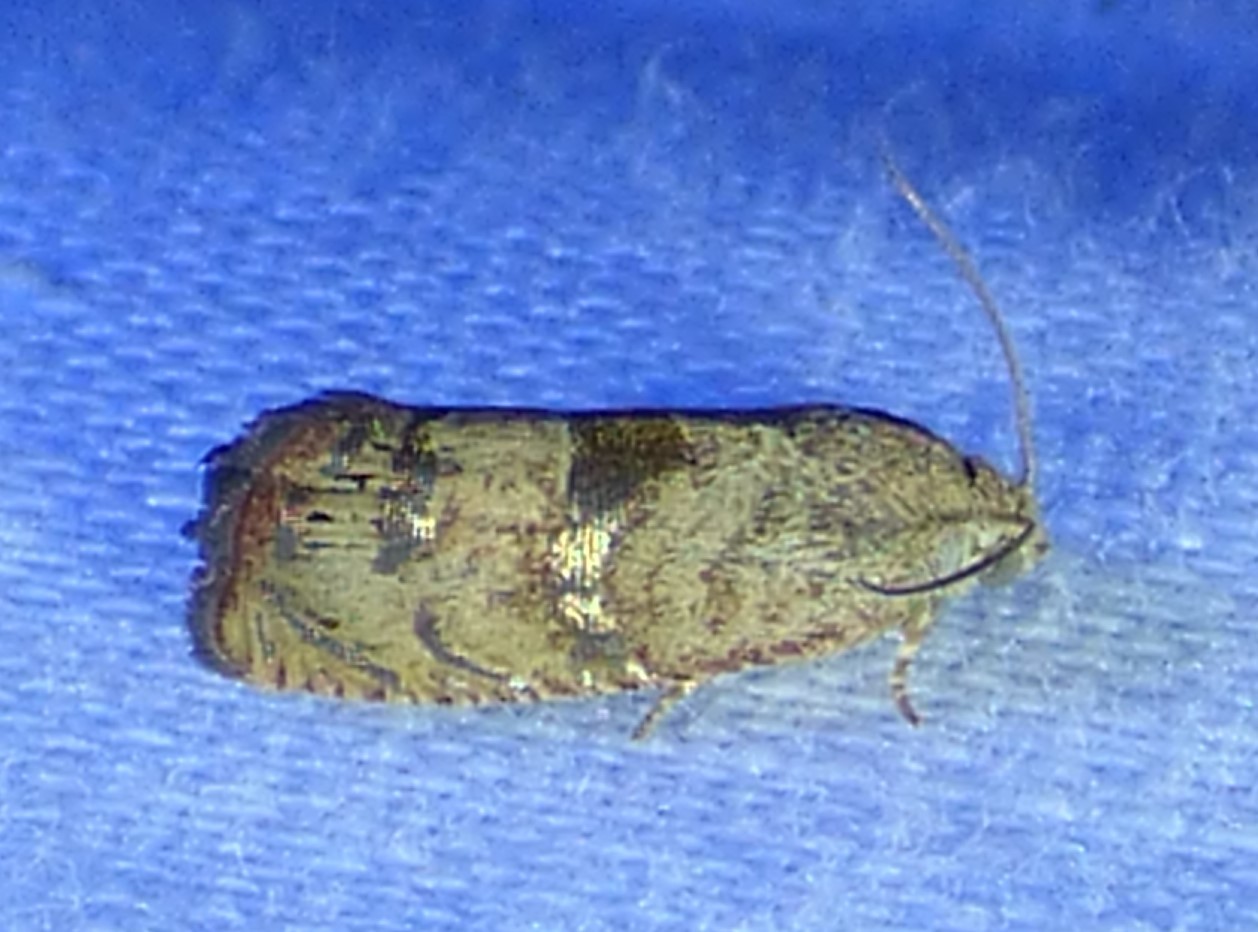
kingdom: Animalia
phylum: Arthropoda
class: Insecta
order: Lepidoptera
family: Tortricidae
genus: Cydia
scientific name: Cydia latiferreana
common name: Filbertworm moth
